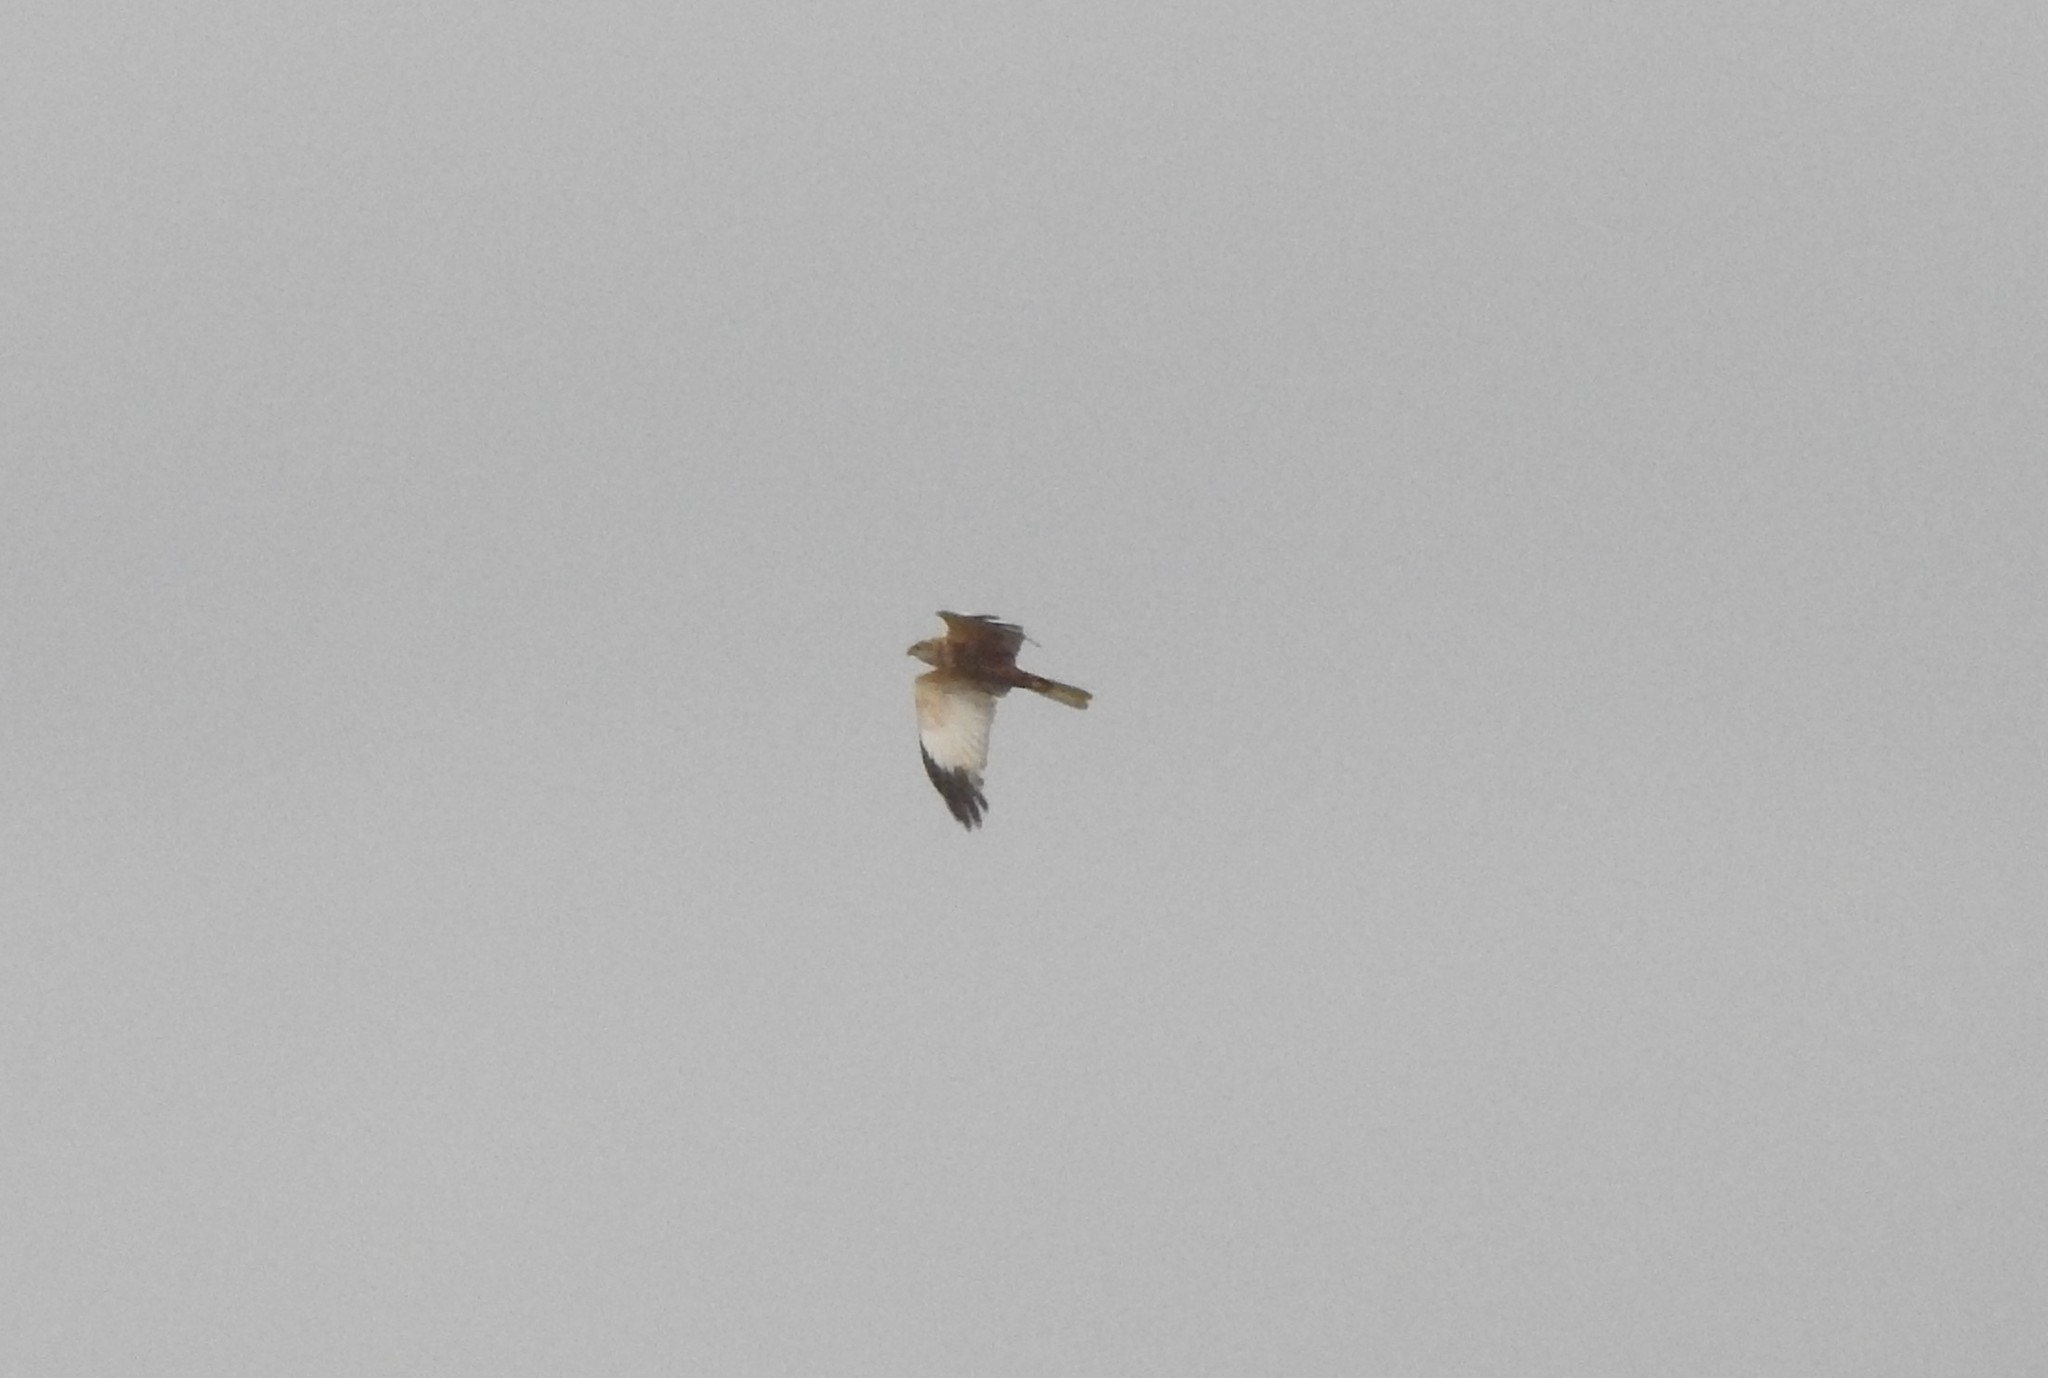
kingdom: Animalia
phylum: Chordata
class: Aves
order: Accipitriformes
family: Accipitridae
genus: Circus
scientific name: Circus aeruginosus
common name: Western marsh harrier
